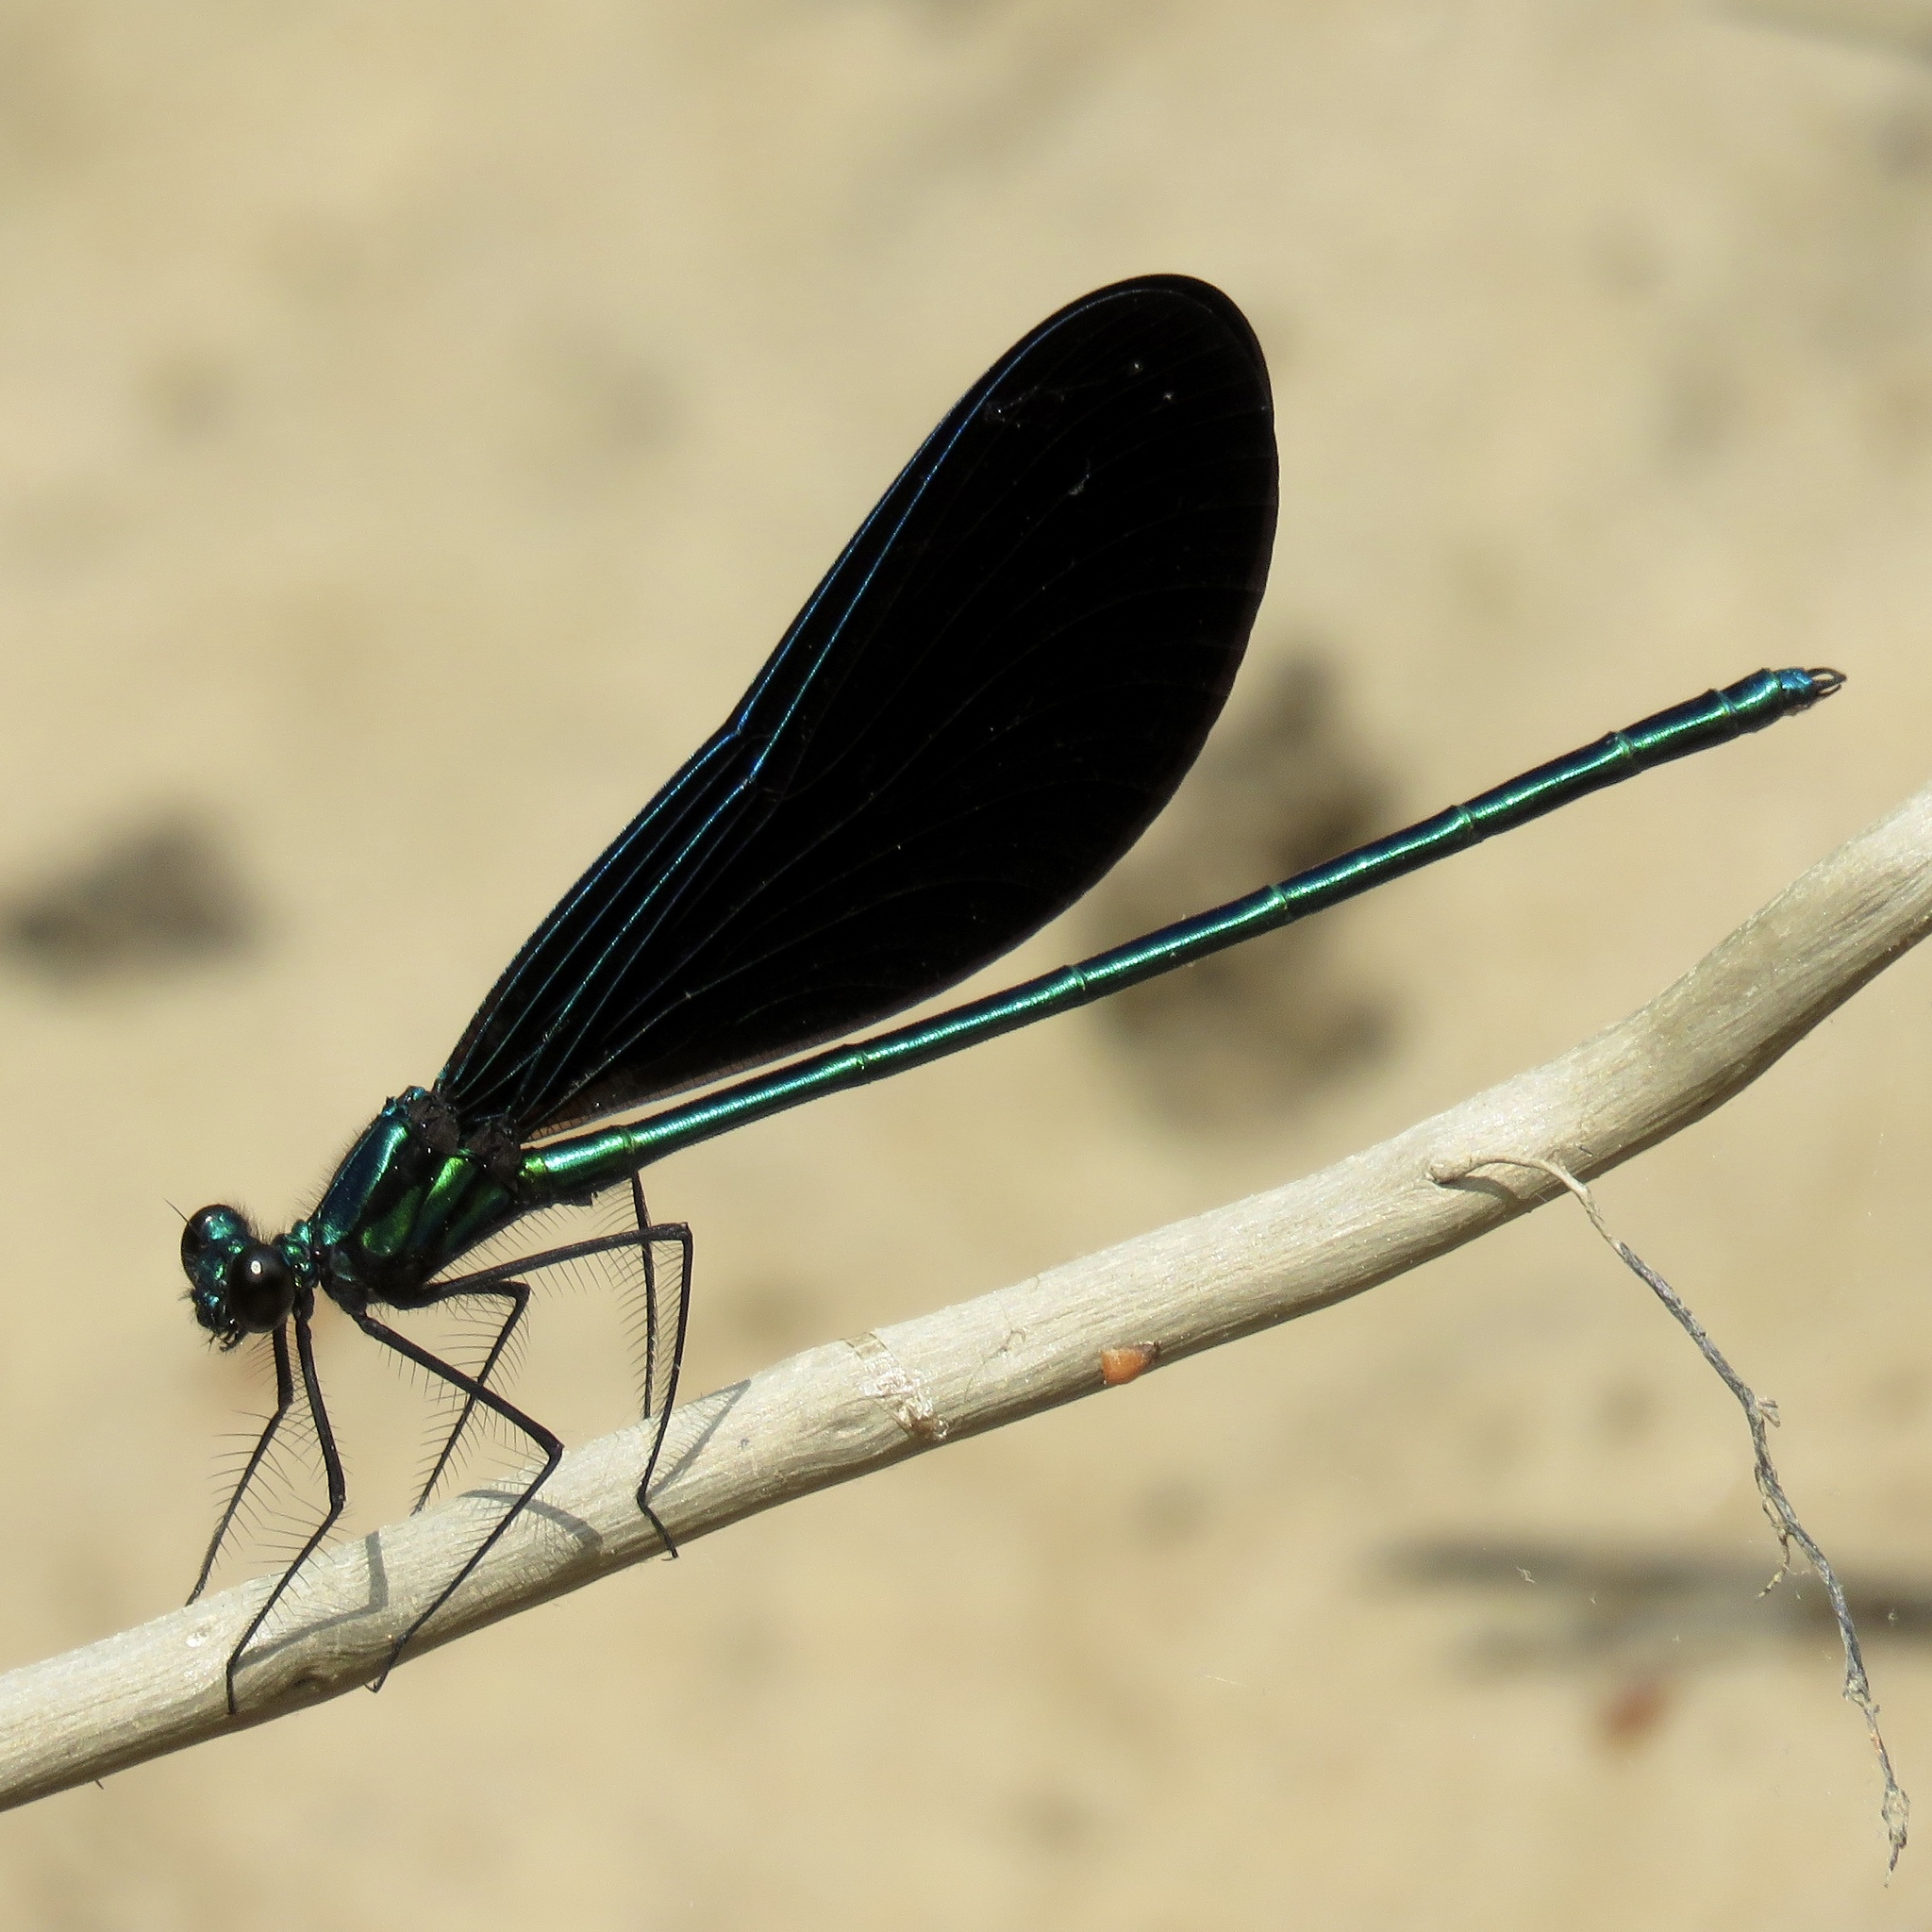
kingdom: Animalia
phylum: Arthropoda
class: Insecta
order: Odonata
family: Calopterygidae
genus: Calopteryx
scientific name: Calopteryx maculata
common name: Ebony jewelwing
